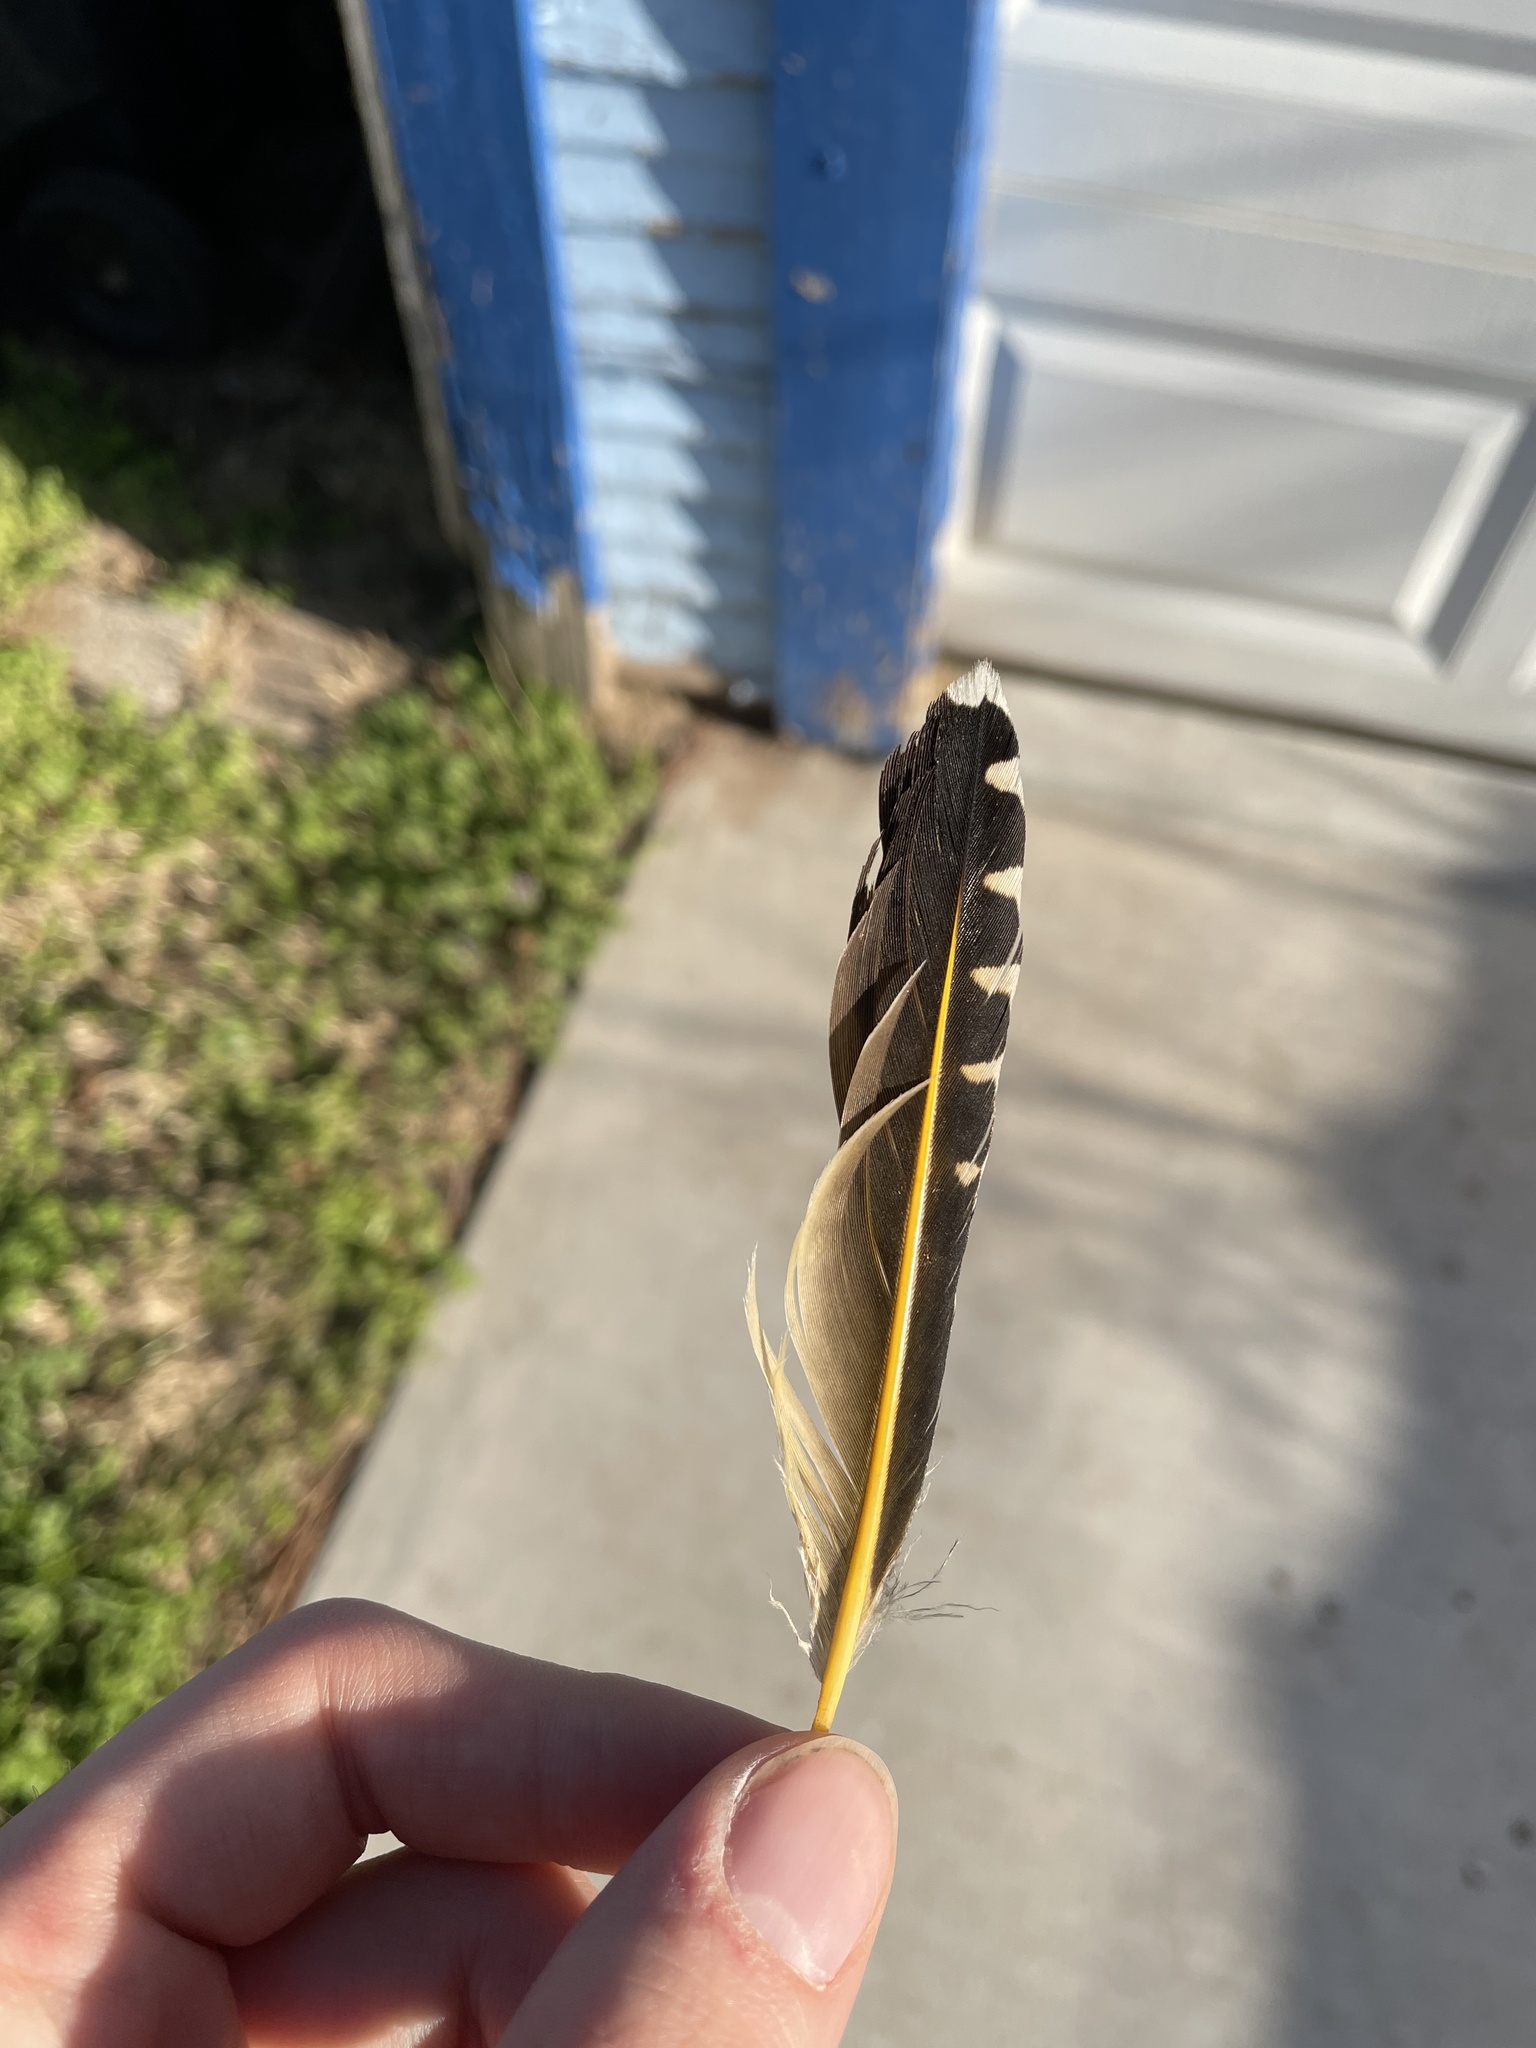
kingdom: Animalia
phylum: Chordata
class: Aves
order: Piciformes
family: Picidae
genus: Colaptes
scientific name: Colaptes auratus
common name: Northern flicker
